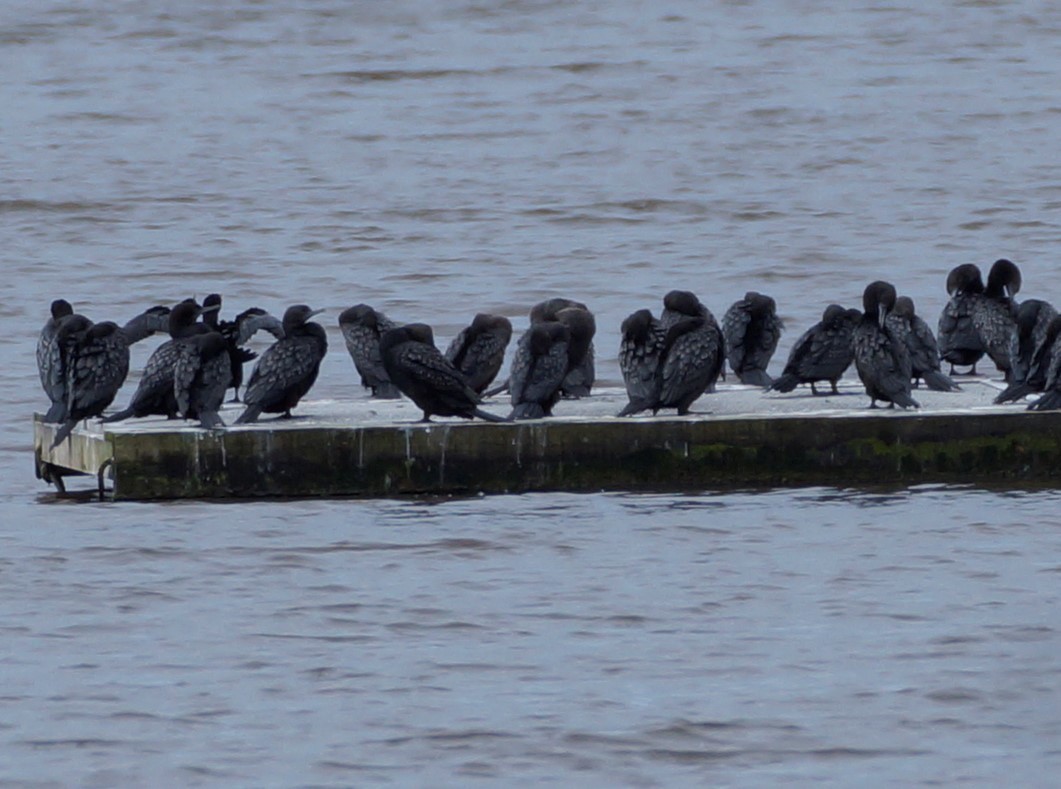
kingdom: Animalia
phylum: Chordata
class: Aves
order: Suliformes
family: Phalacrocoracidae
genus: Phalacrocorax
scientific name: Phalacrocorax sulcirostris
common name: Little black cormorant
